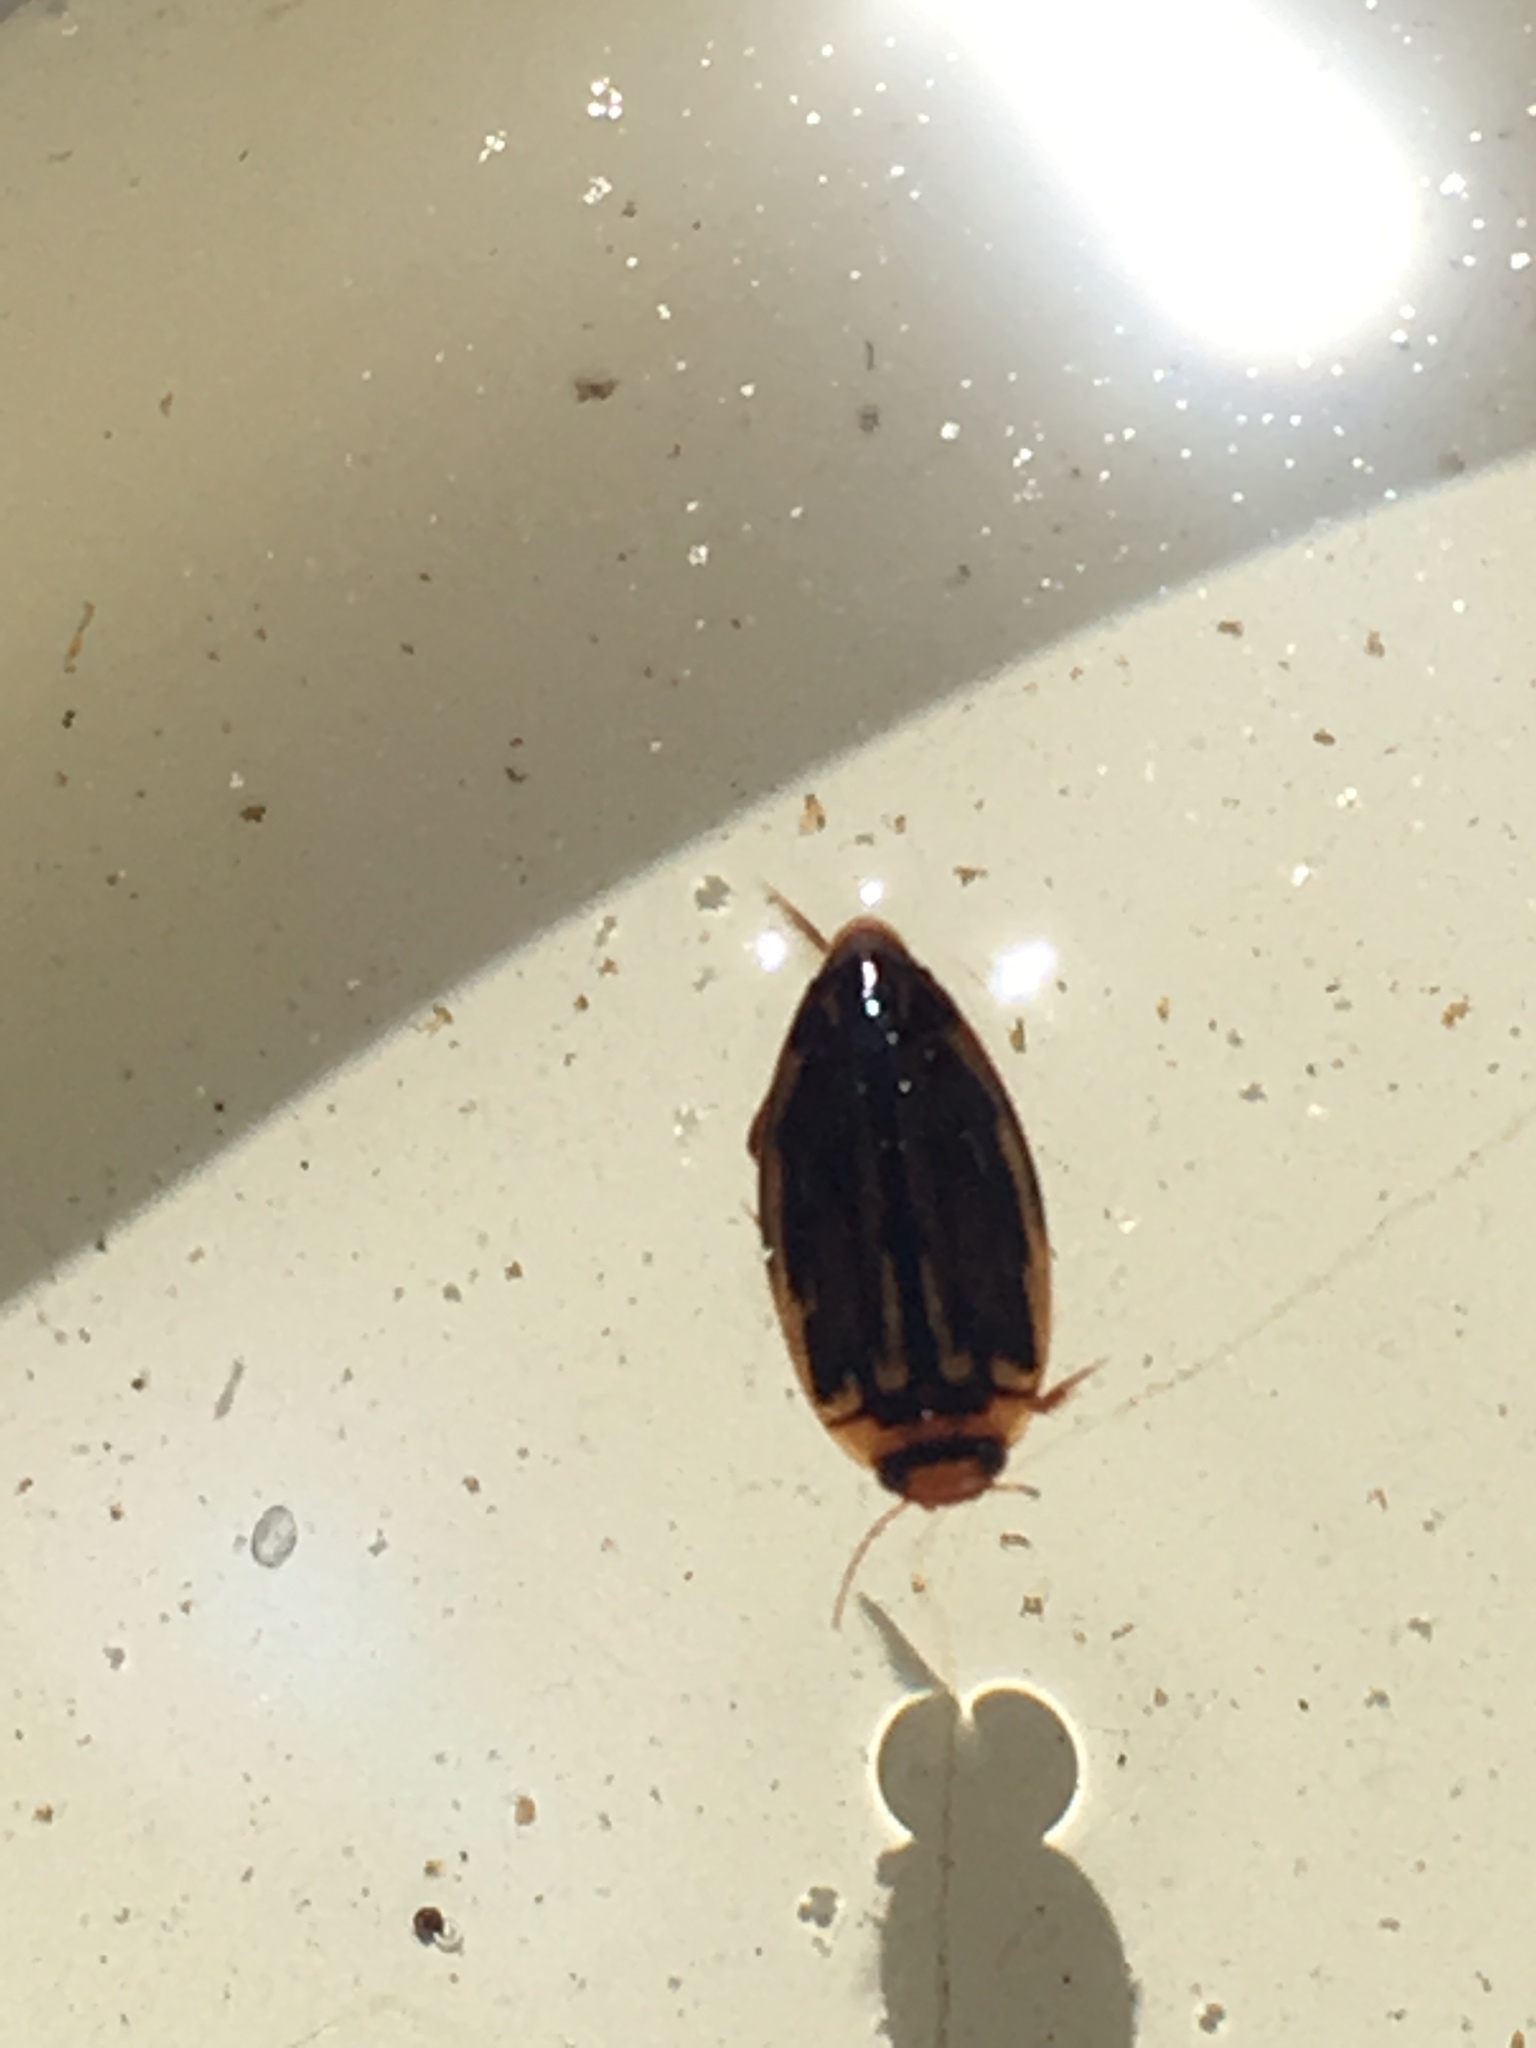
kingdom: Animalia
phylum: Arthropoda
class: Insecta
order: Coleoptera
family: Dytiscidae
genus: Coptotomus
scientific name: Coptotomus longulus
